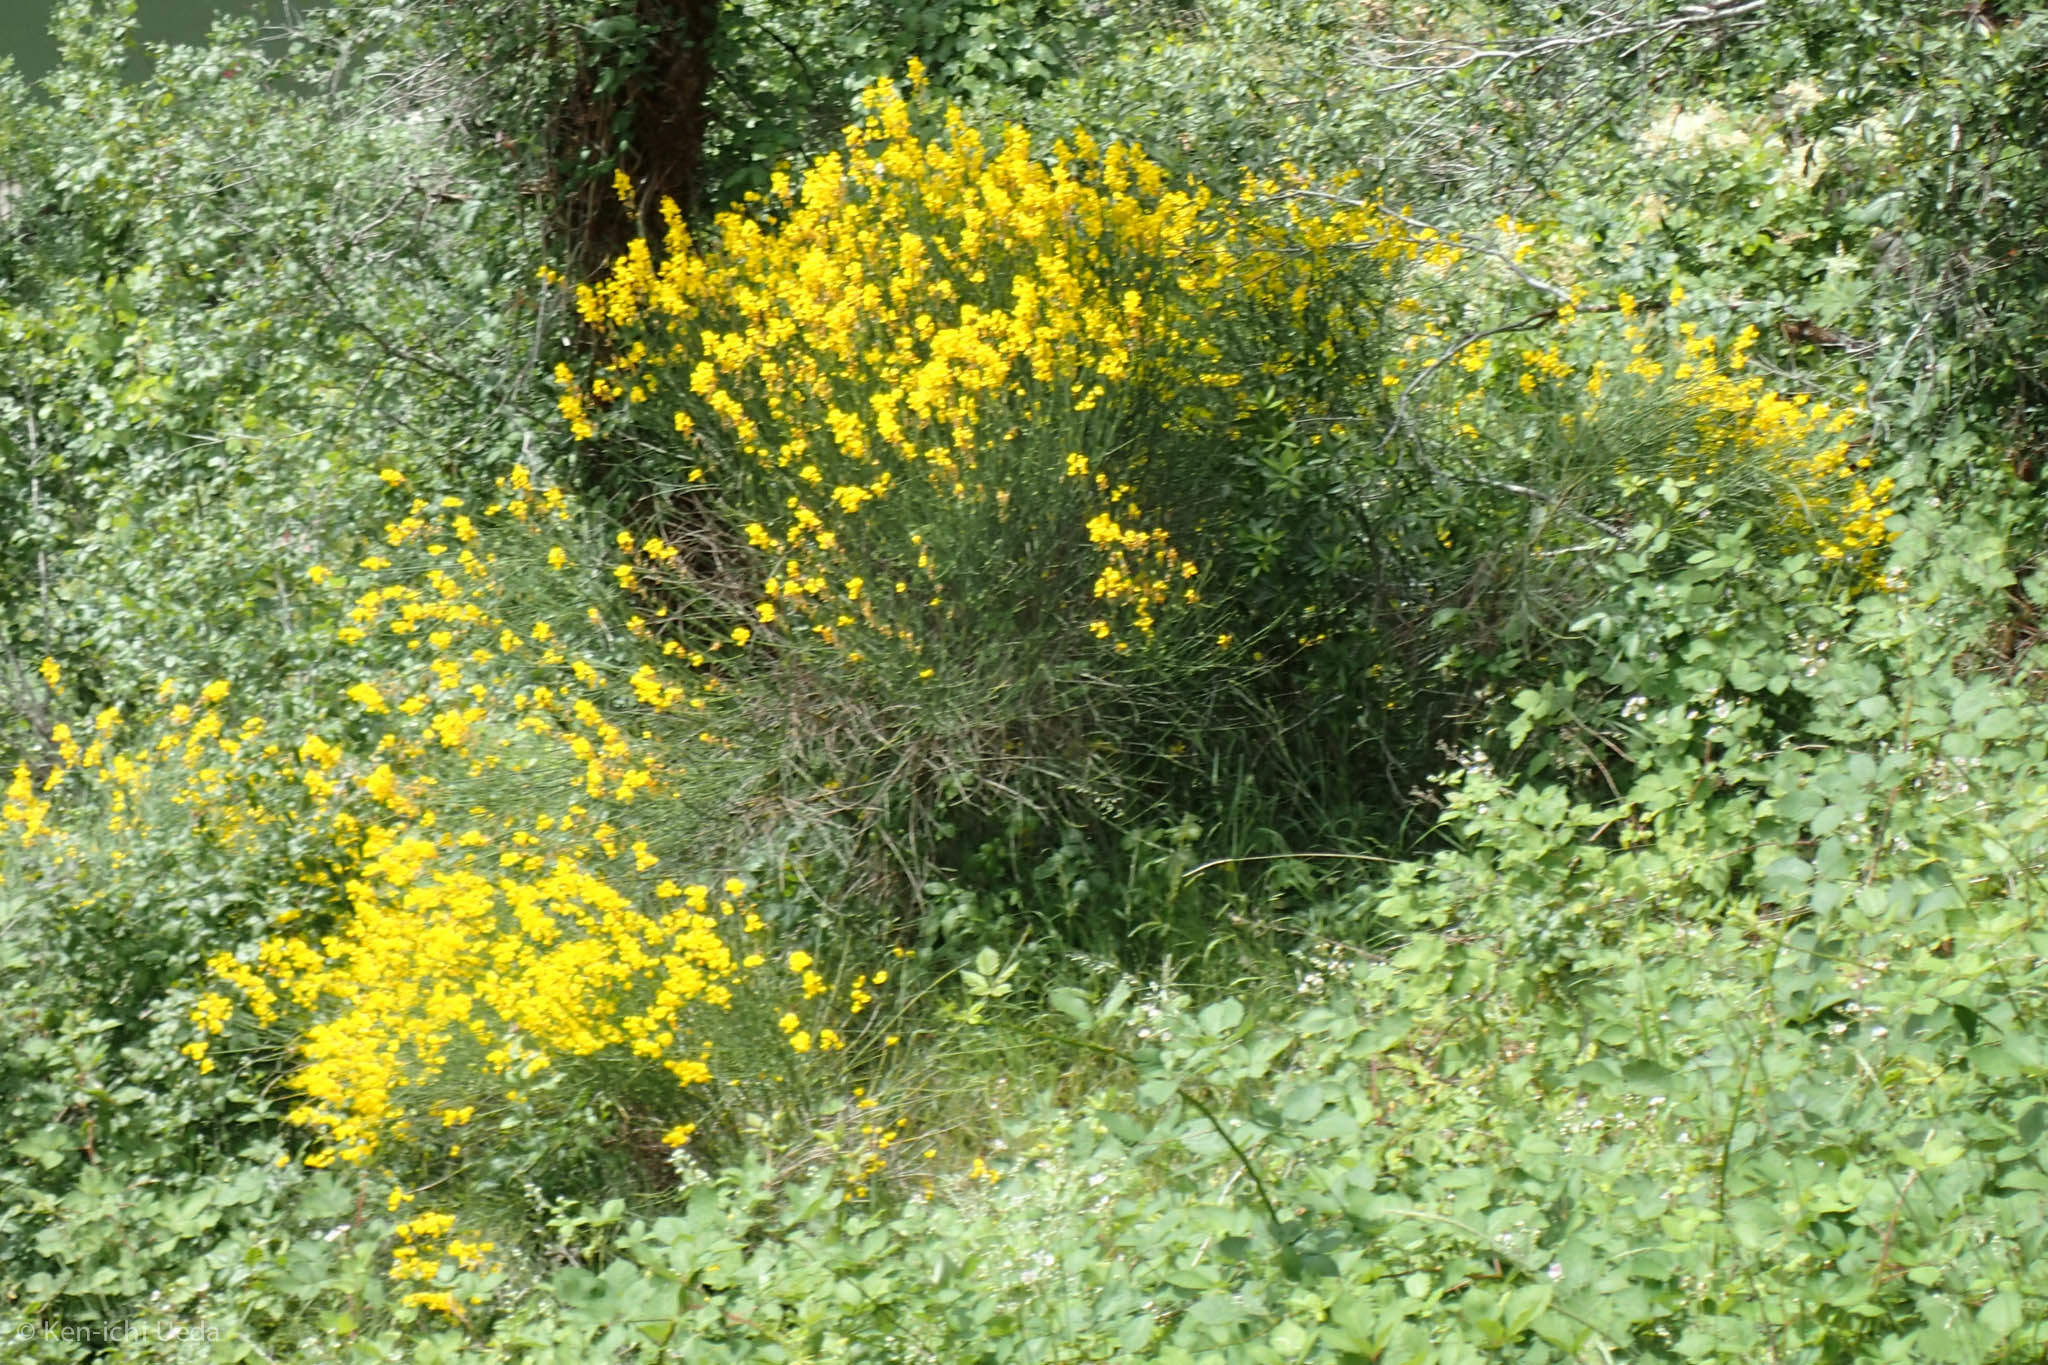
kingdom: Plantae
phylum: Tracheophyta
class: Magnoliopsida
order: Fabales
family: Fabaceae
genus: Cytisus
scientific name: Cytisus scoparius
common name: Scotch broom
